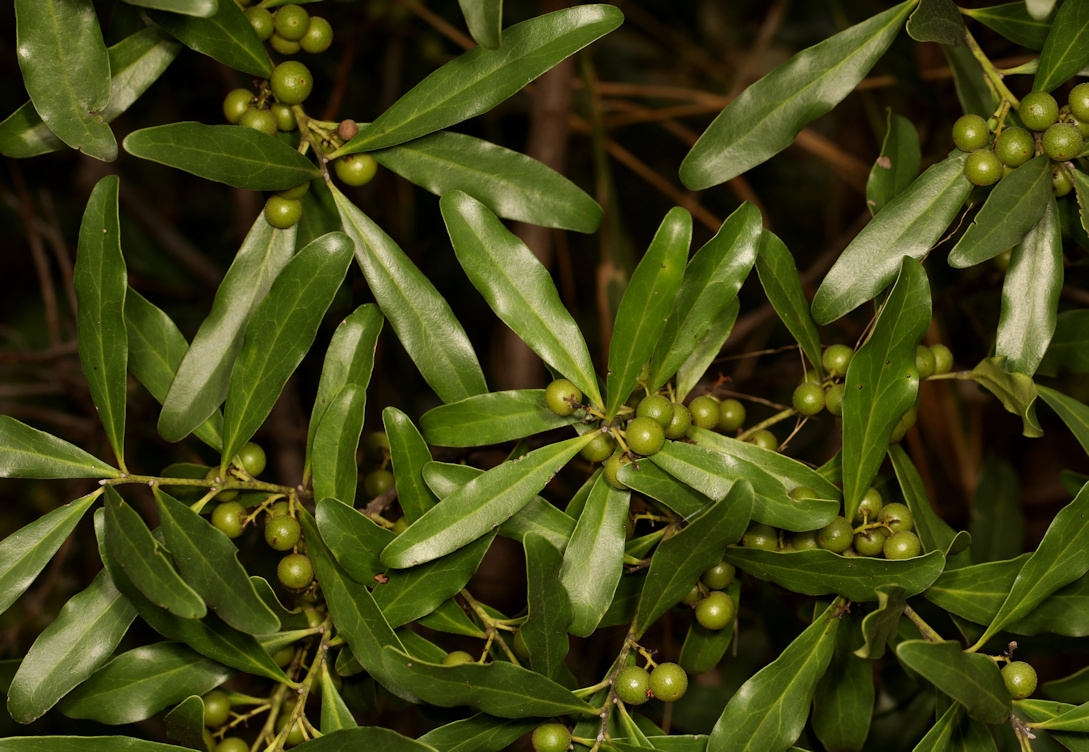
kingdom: Plantae
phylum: Tracheophyta
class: Magnoliopsida
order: Ericales
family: Ebenaceae
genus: Euclea
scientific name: Euclea racemosa
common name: Dune guarri
